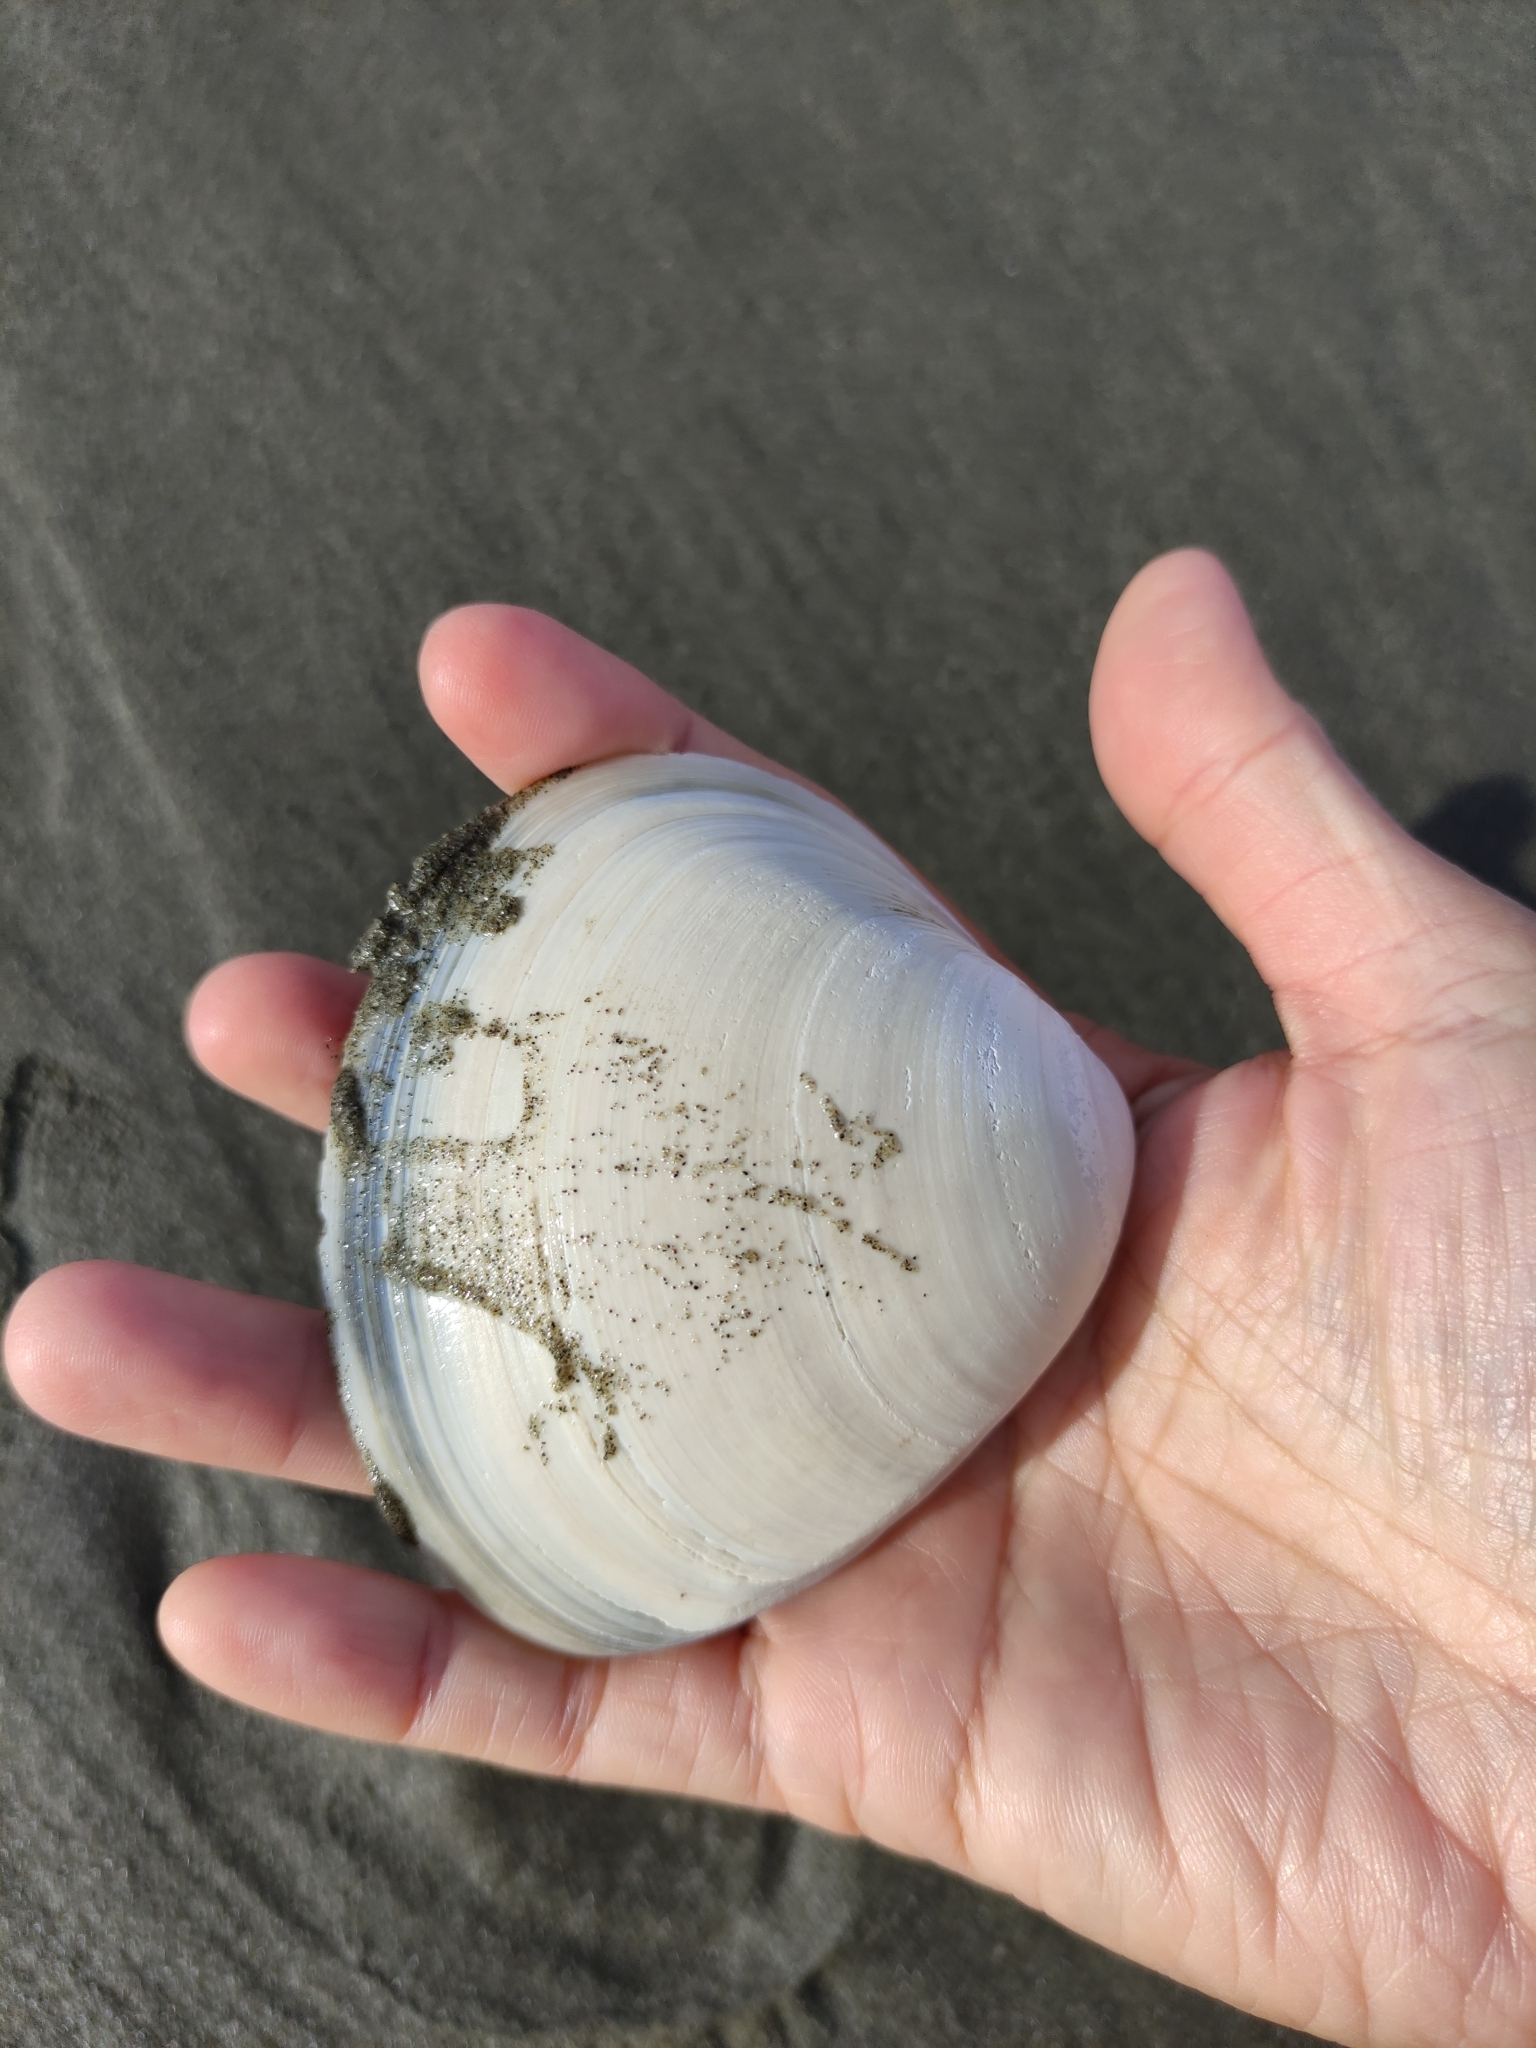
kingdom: Animalia
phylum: Mollusca
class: Bivalvia
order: Venerida
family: Mactridae
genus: Spisula
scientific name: Spisula discors
